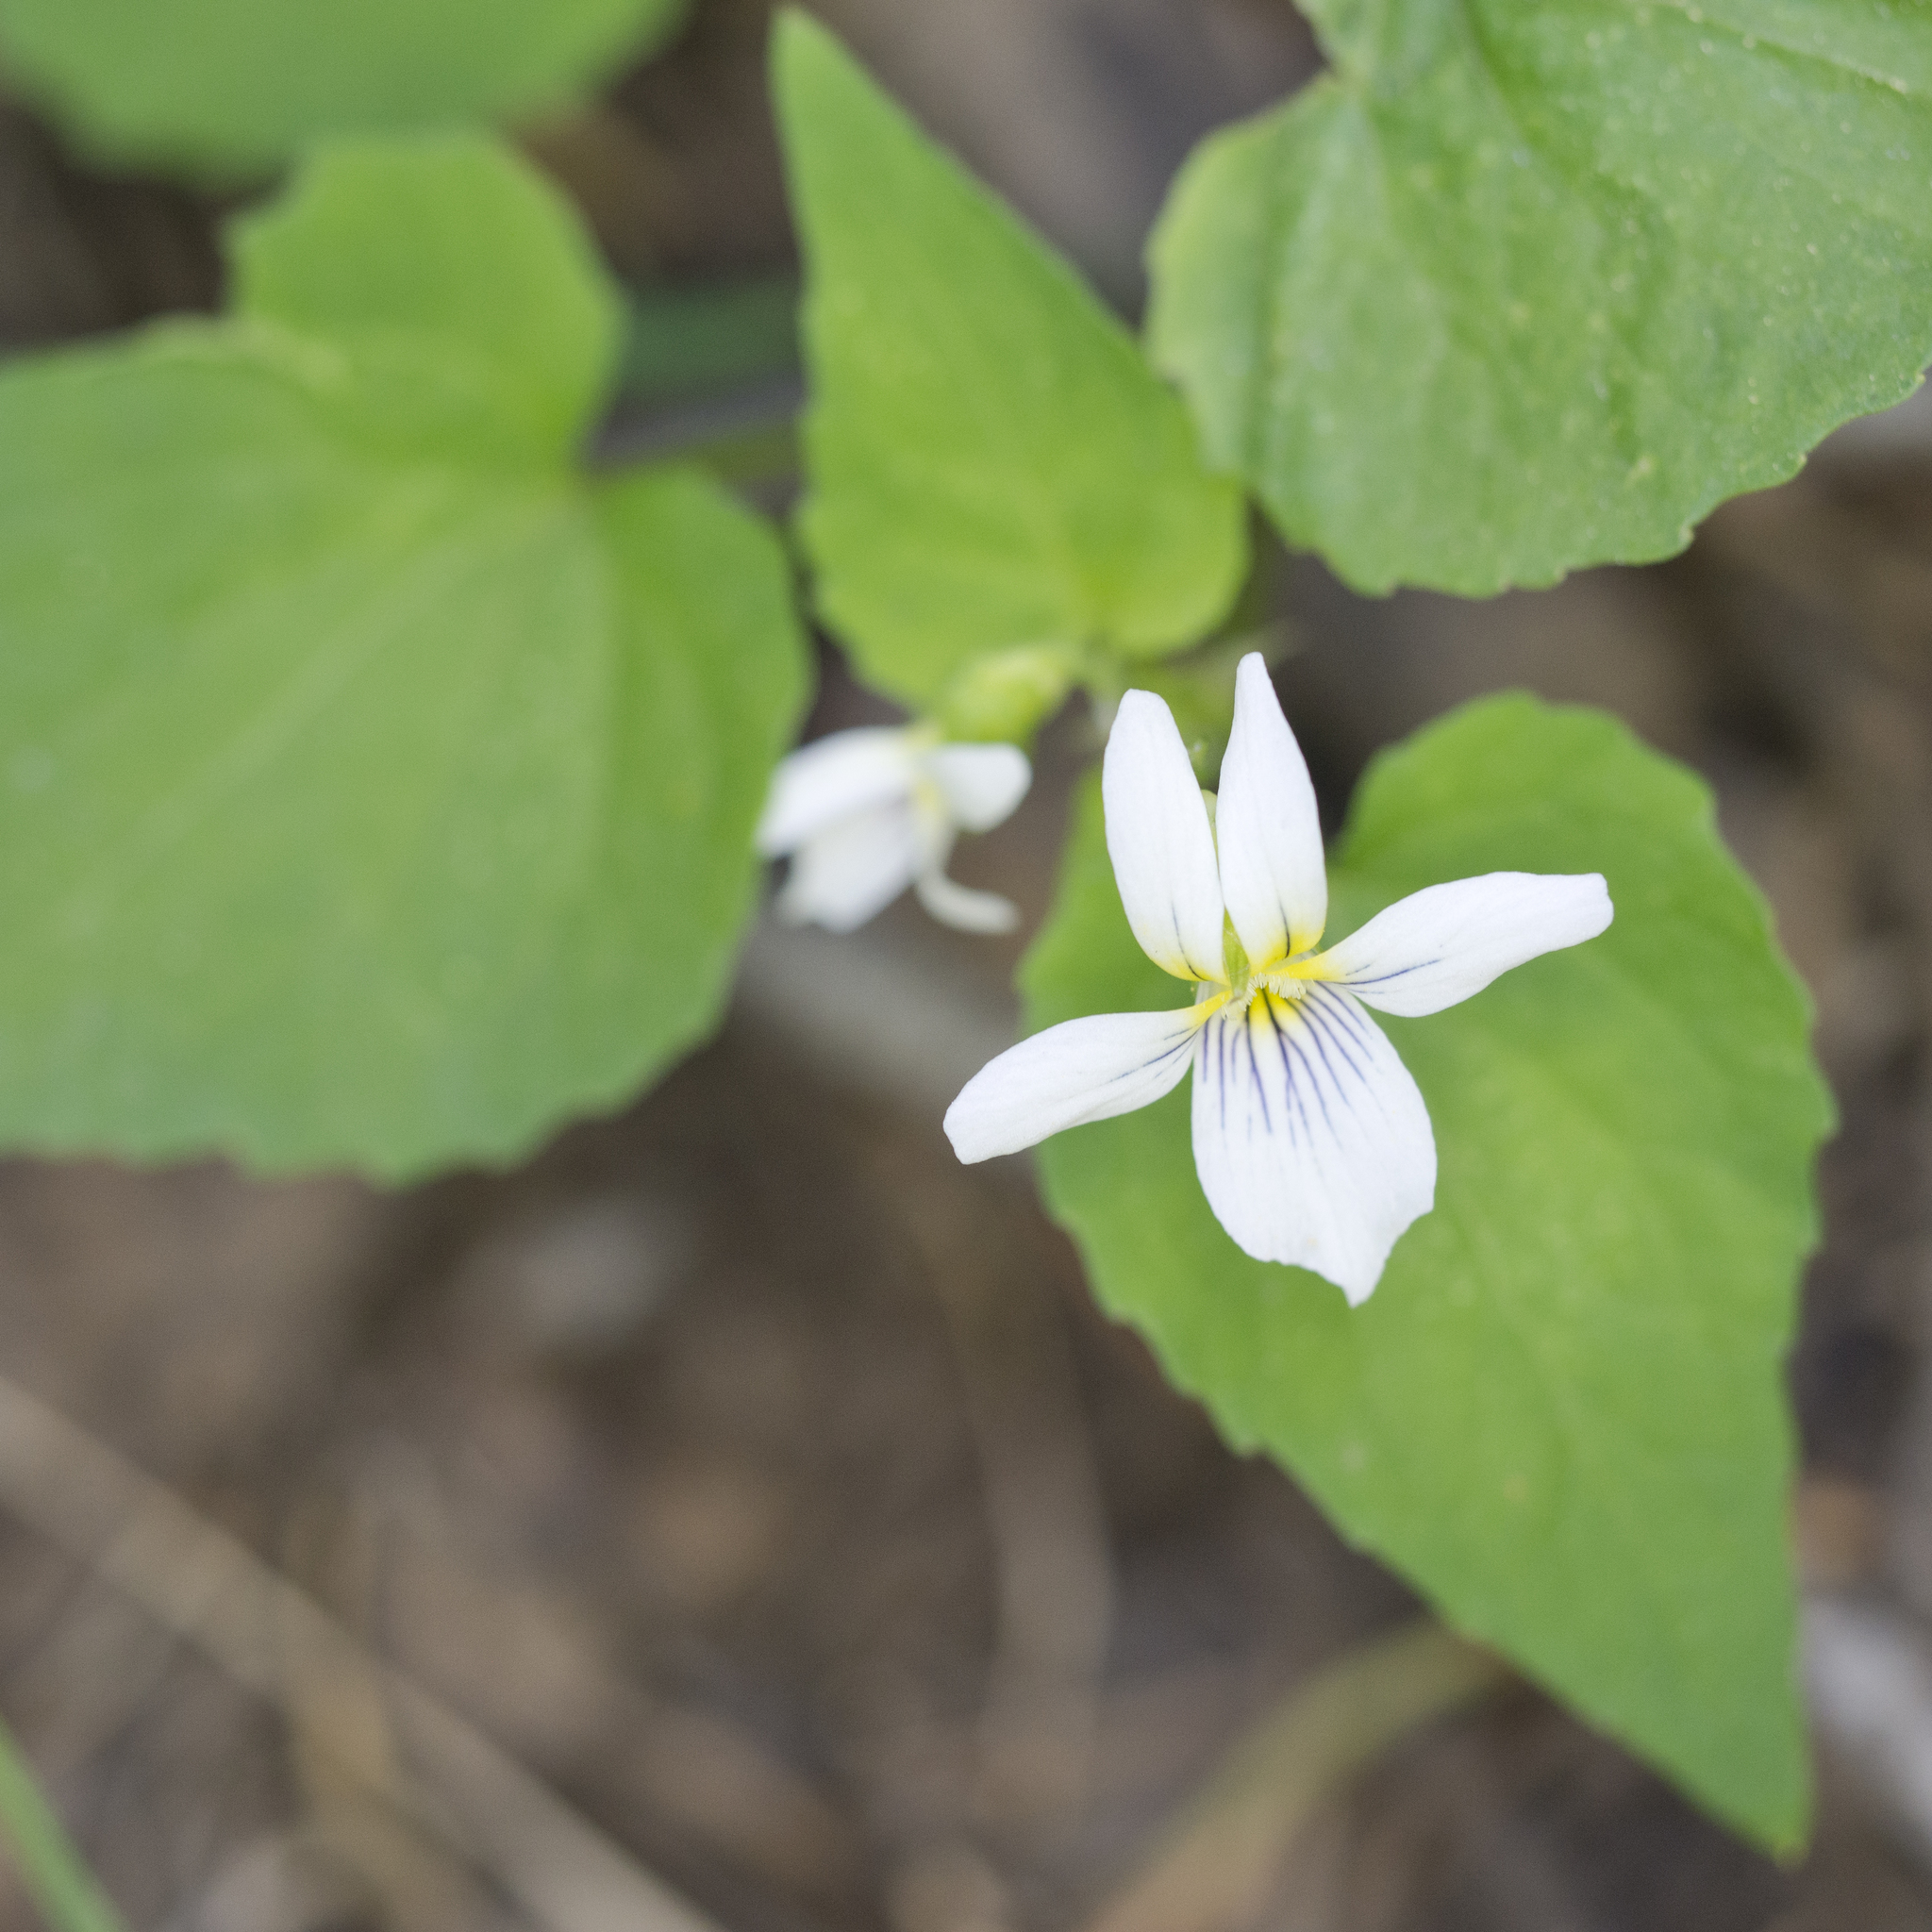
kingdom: Plantae
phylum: Tracheophyta
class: Magnoliopsida
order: Malpighiales
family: Violaceae
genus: Viola
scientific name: Viola canadensis
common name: Canada violet
